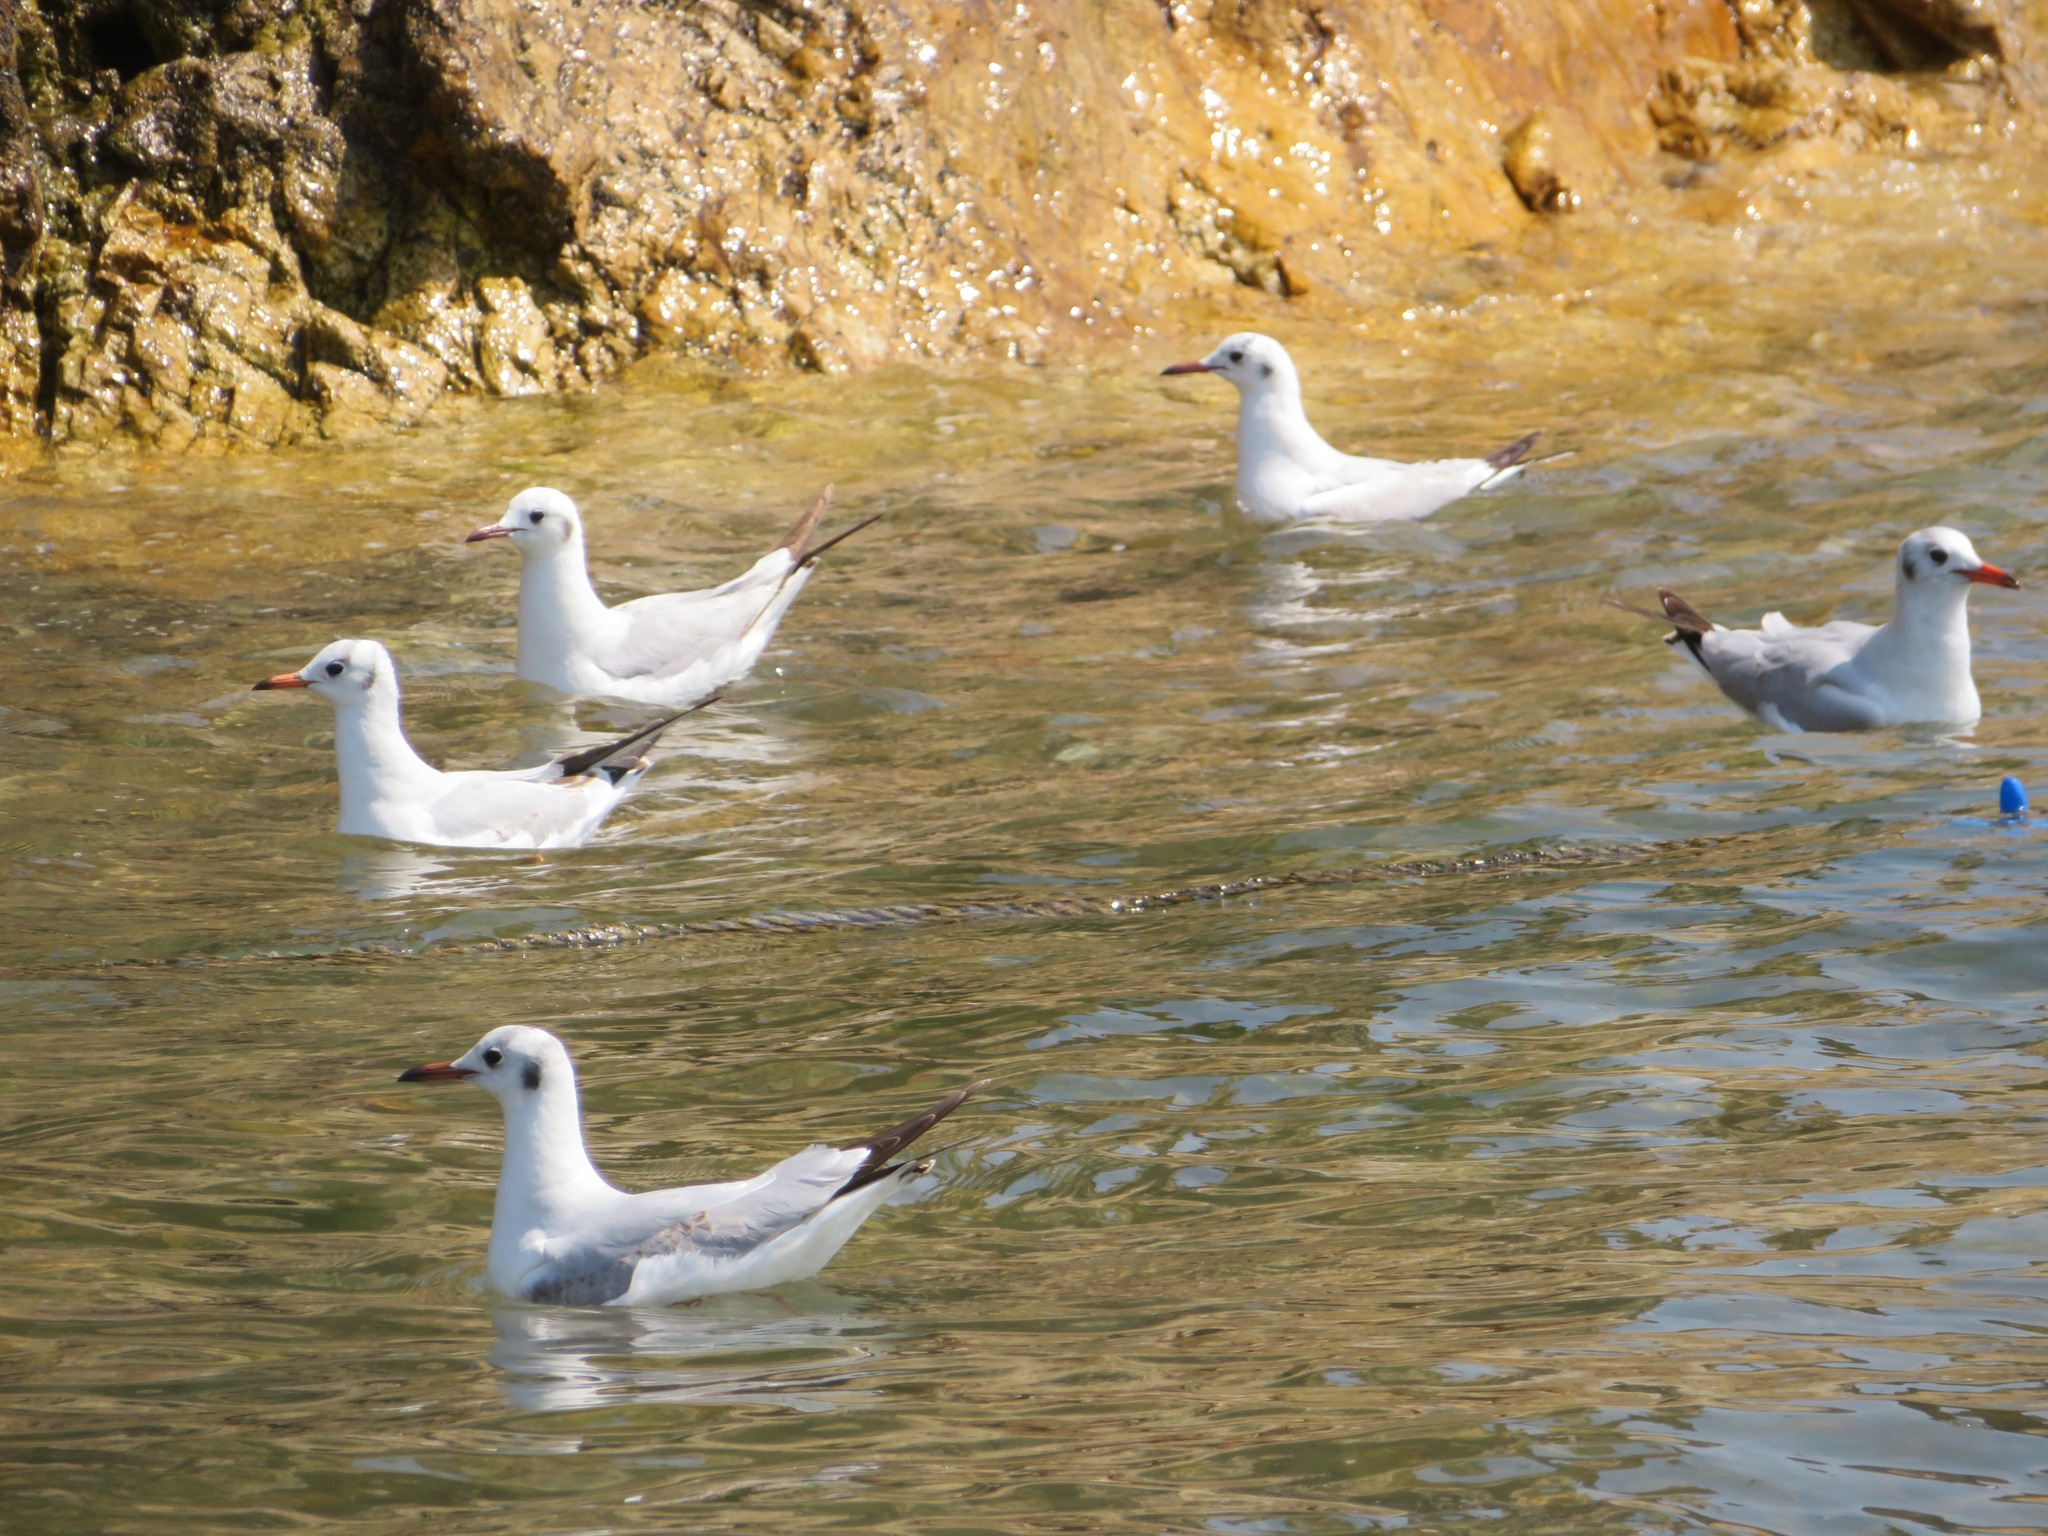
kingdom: Animalia
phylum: Chordata
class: Aves
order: Charadriiformes
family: Laridae
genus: Chroicocephalus
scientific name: Chroicocephalus ridibundus
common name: Black-headed gull
